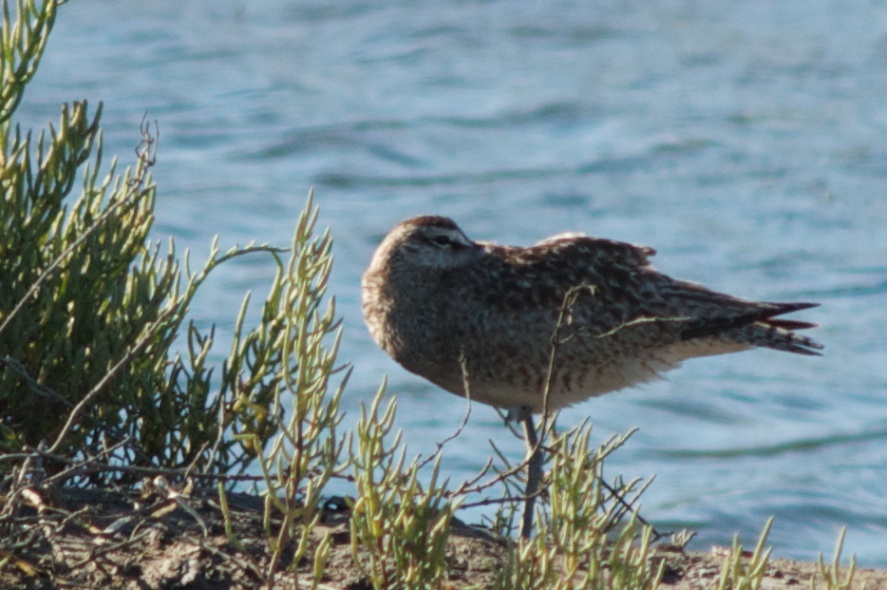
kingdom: Animalia
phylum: Chordata
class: Aves
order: Charadriiformes
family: Scolopacidae
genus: Numenius
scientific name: Numenius phaeopus
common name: Whimbrel
